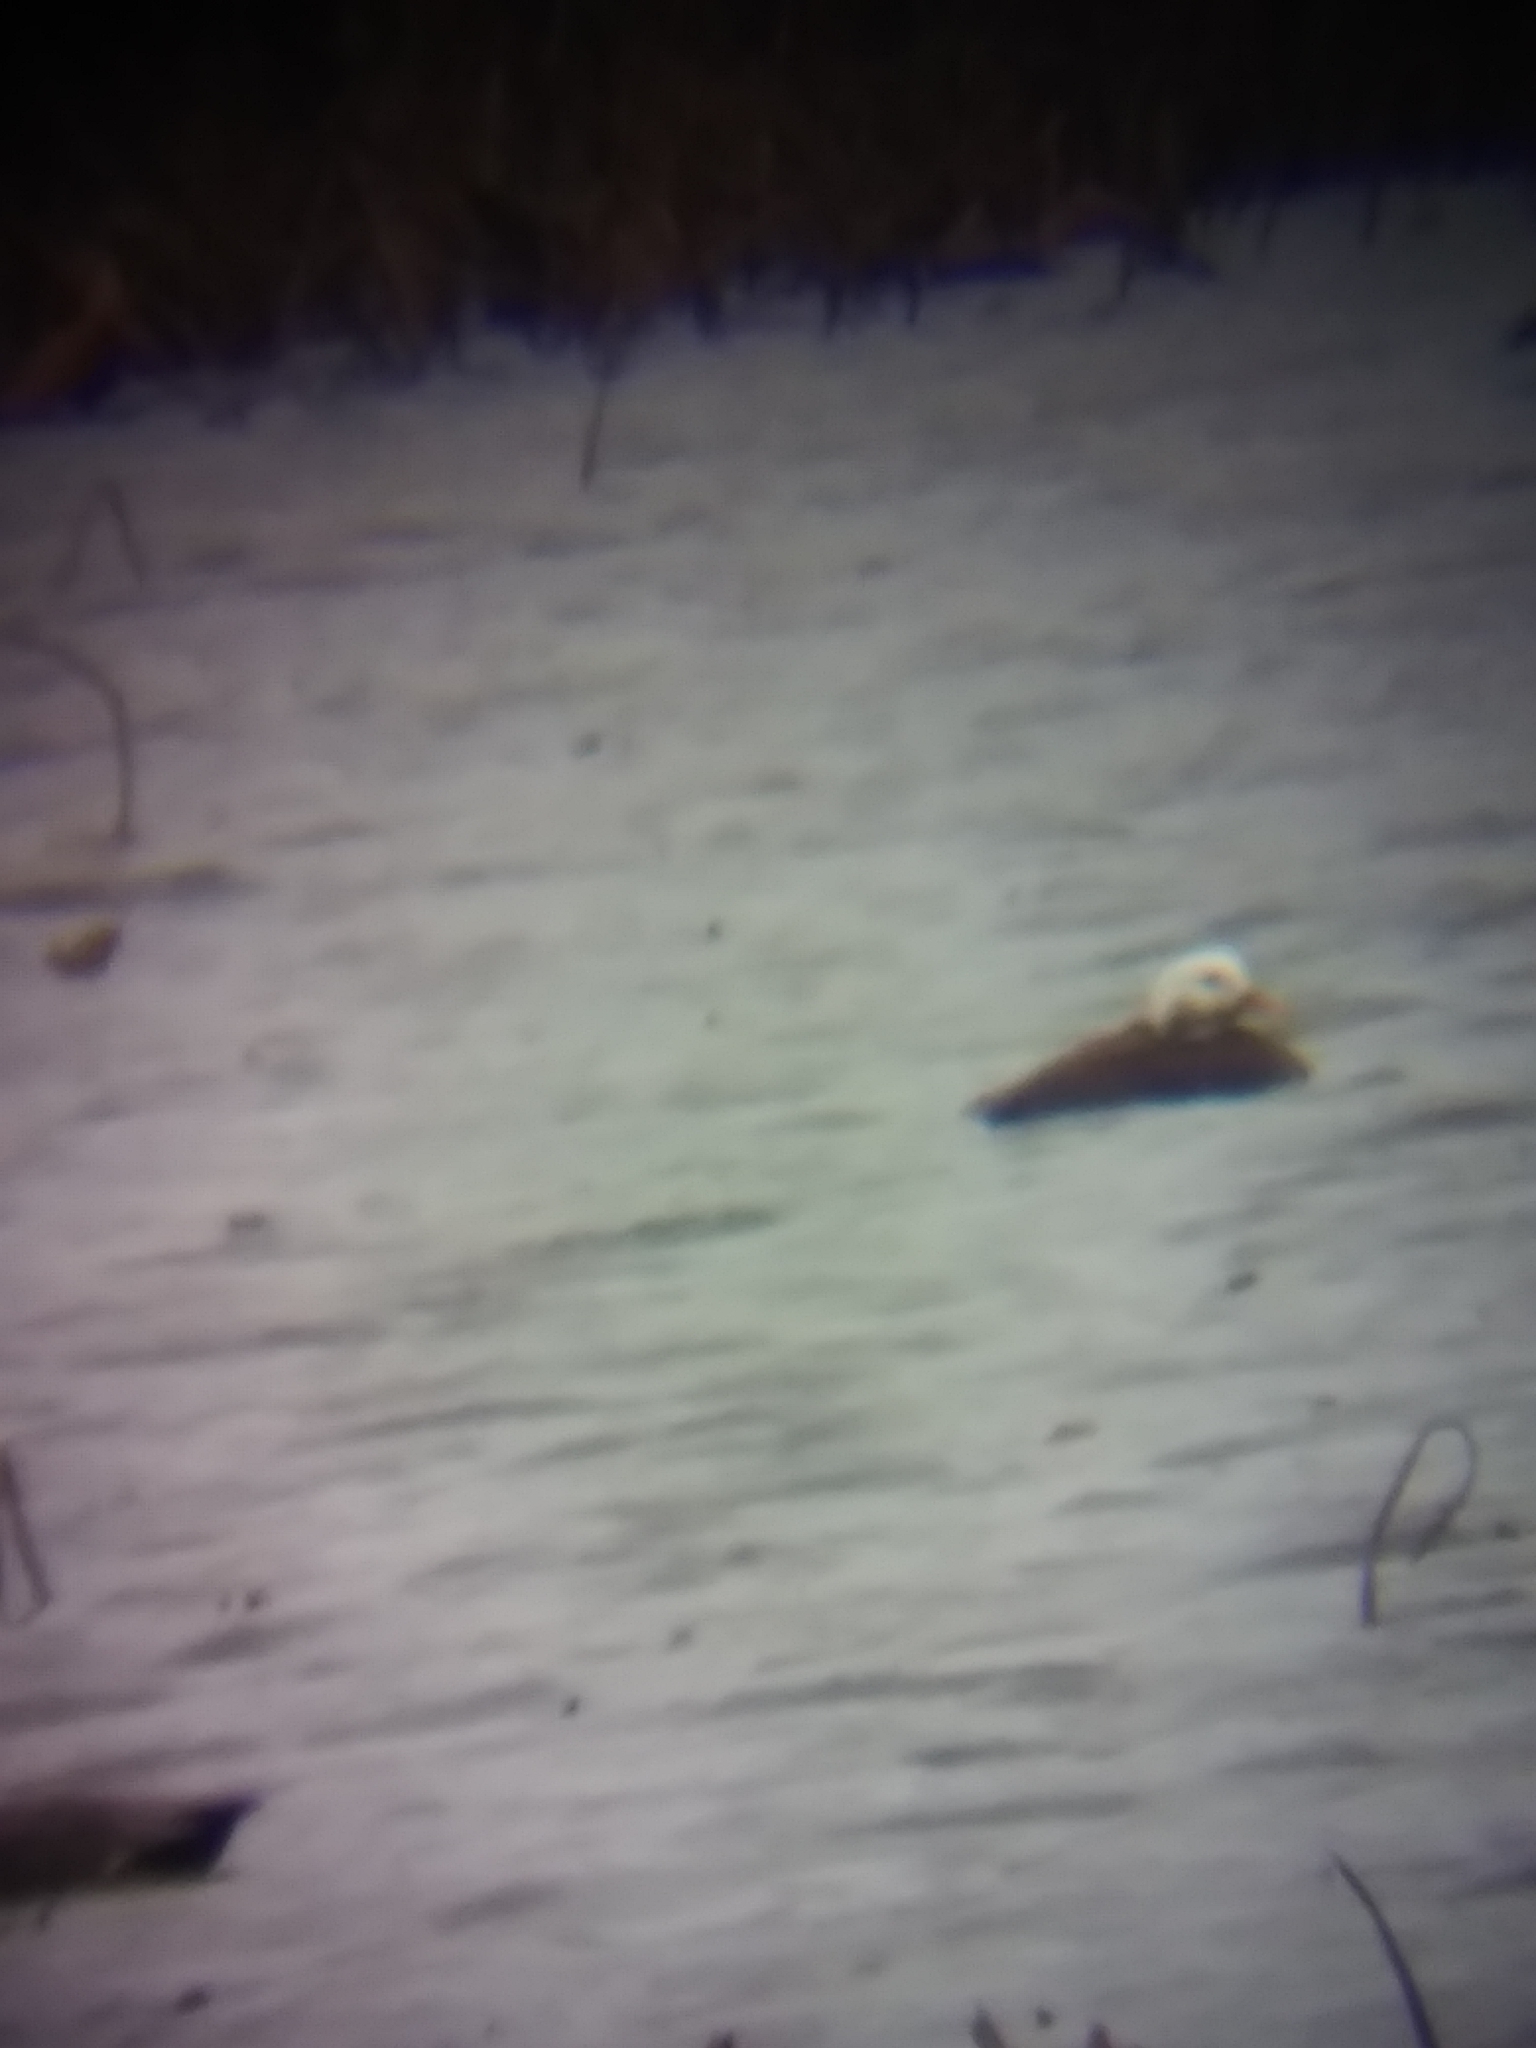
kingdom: Animalia
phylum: Chordata
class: Aves
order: Anseriformes
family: Anatidae
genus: Mareca
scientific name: Mareca strepera
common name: Gadwall
